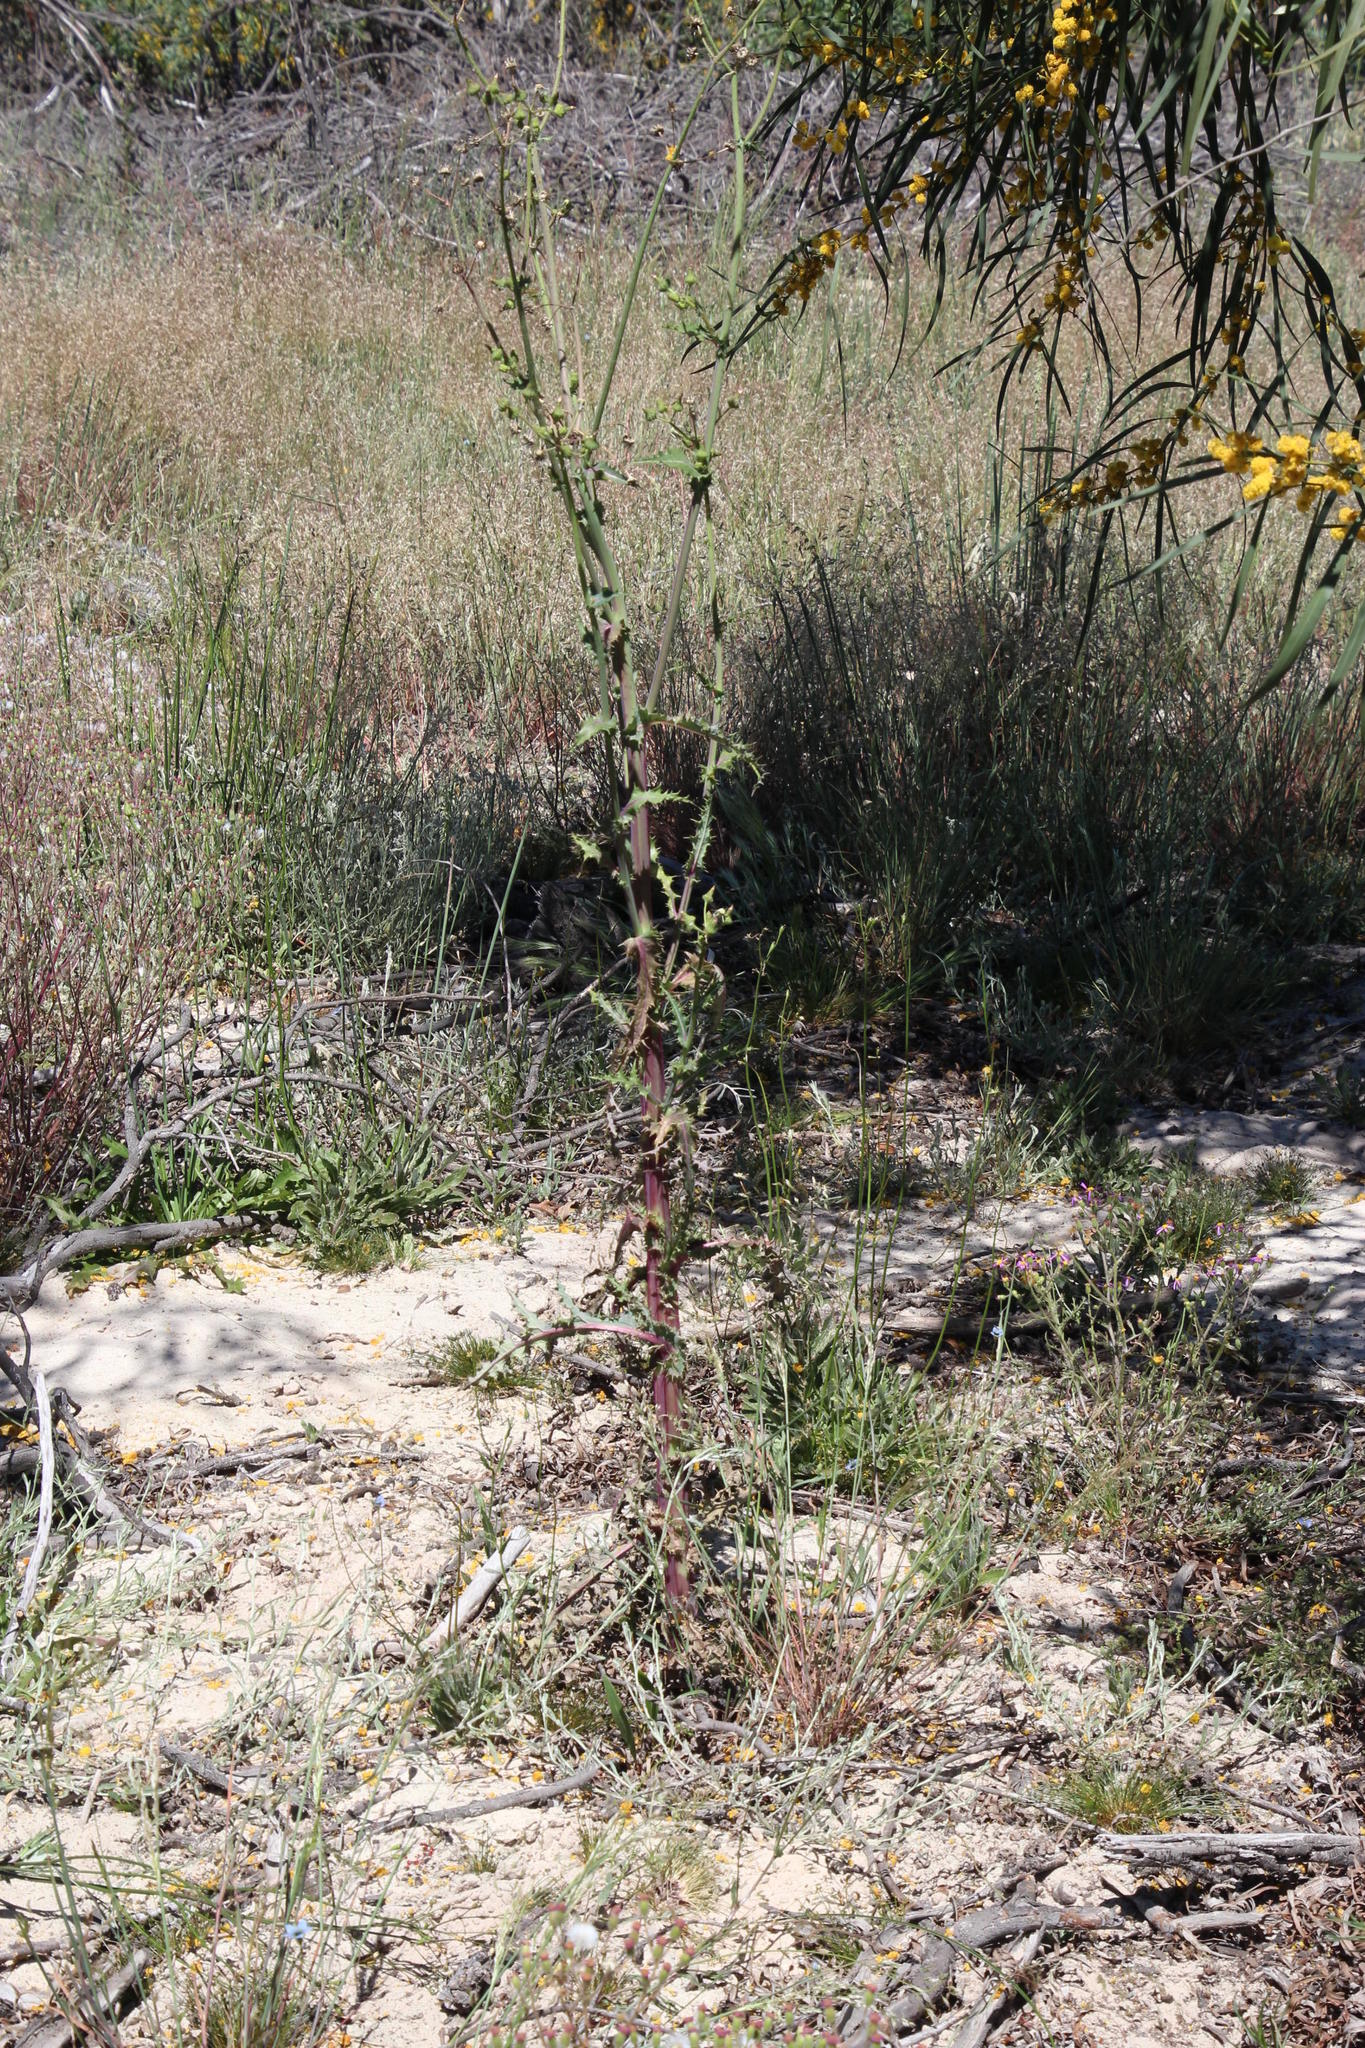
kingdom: Plantae
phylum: Tracheophyta
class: Magnoliopsida
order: Asterales
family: Asteraceae
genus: Sonchus
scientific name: Sonchus oleraceus
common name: Common sowthistle
